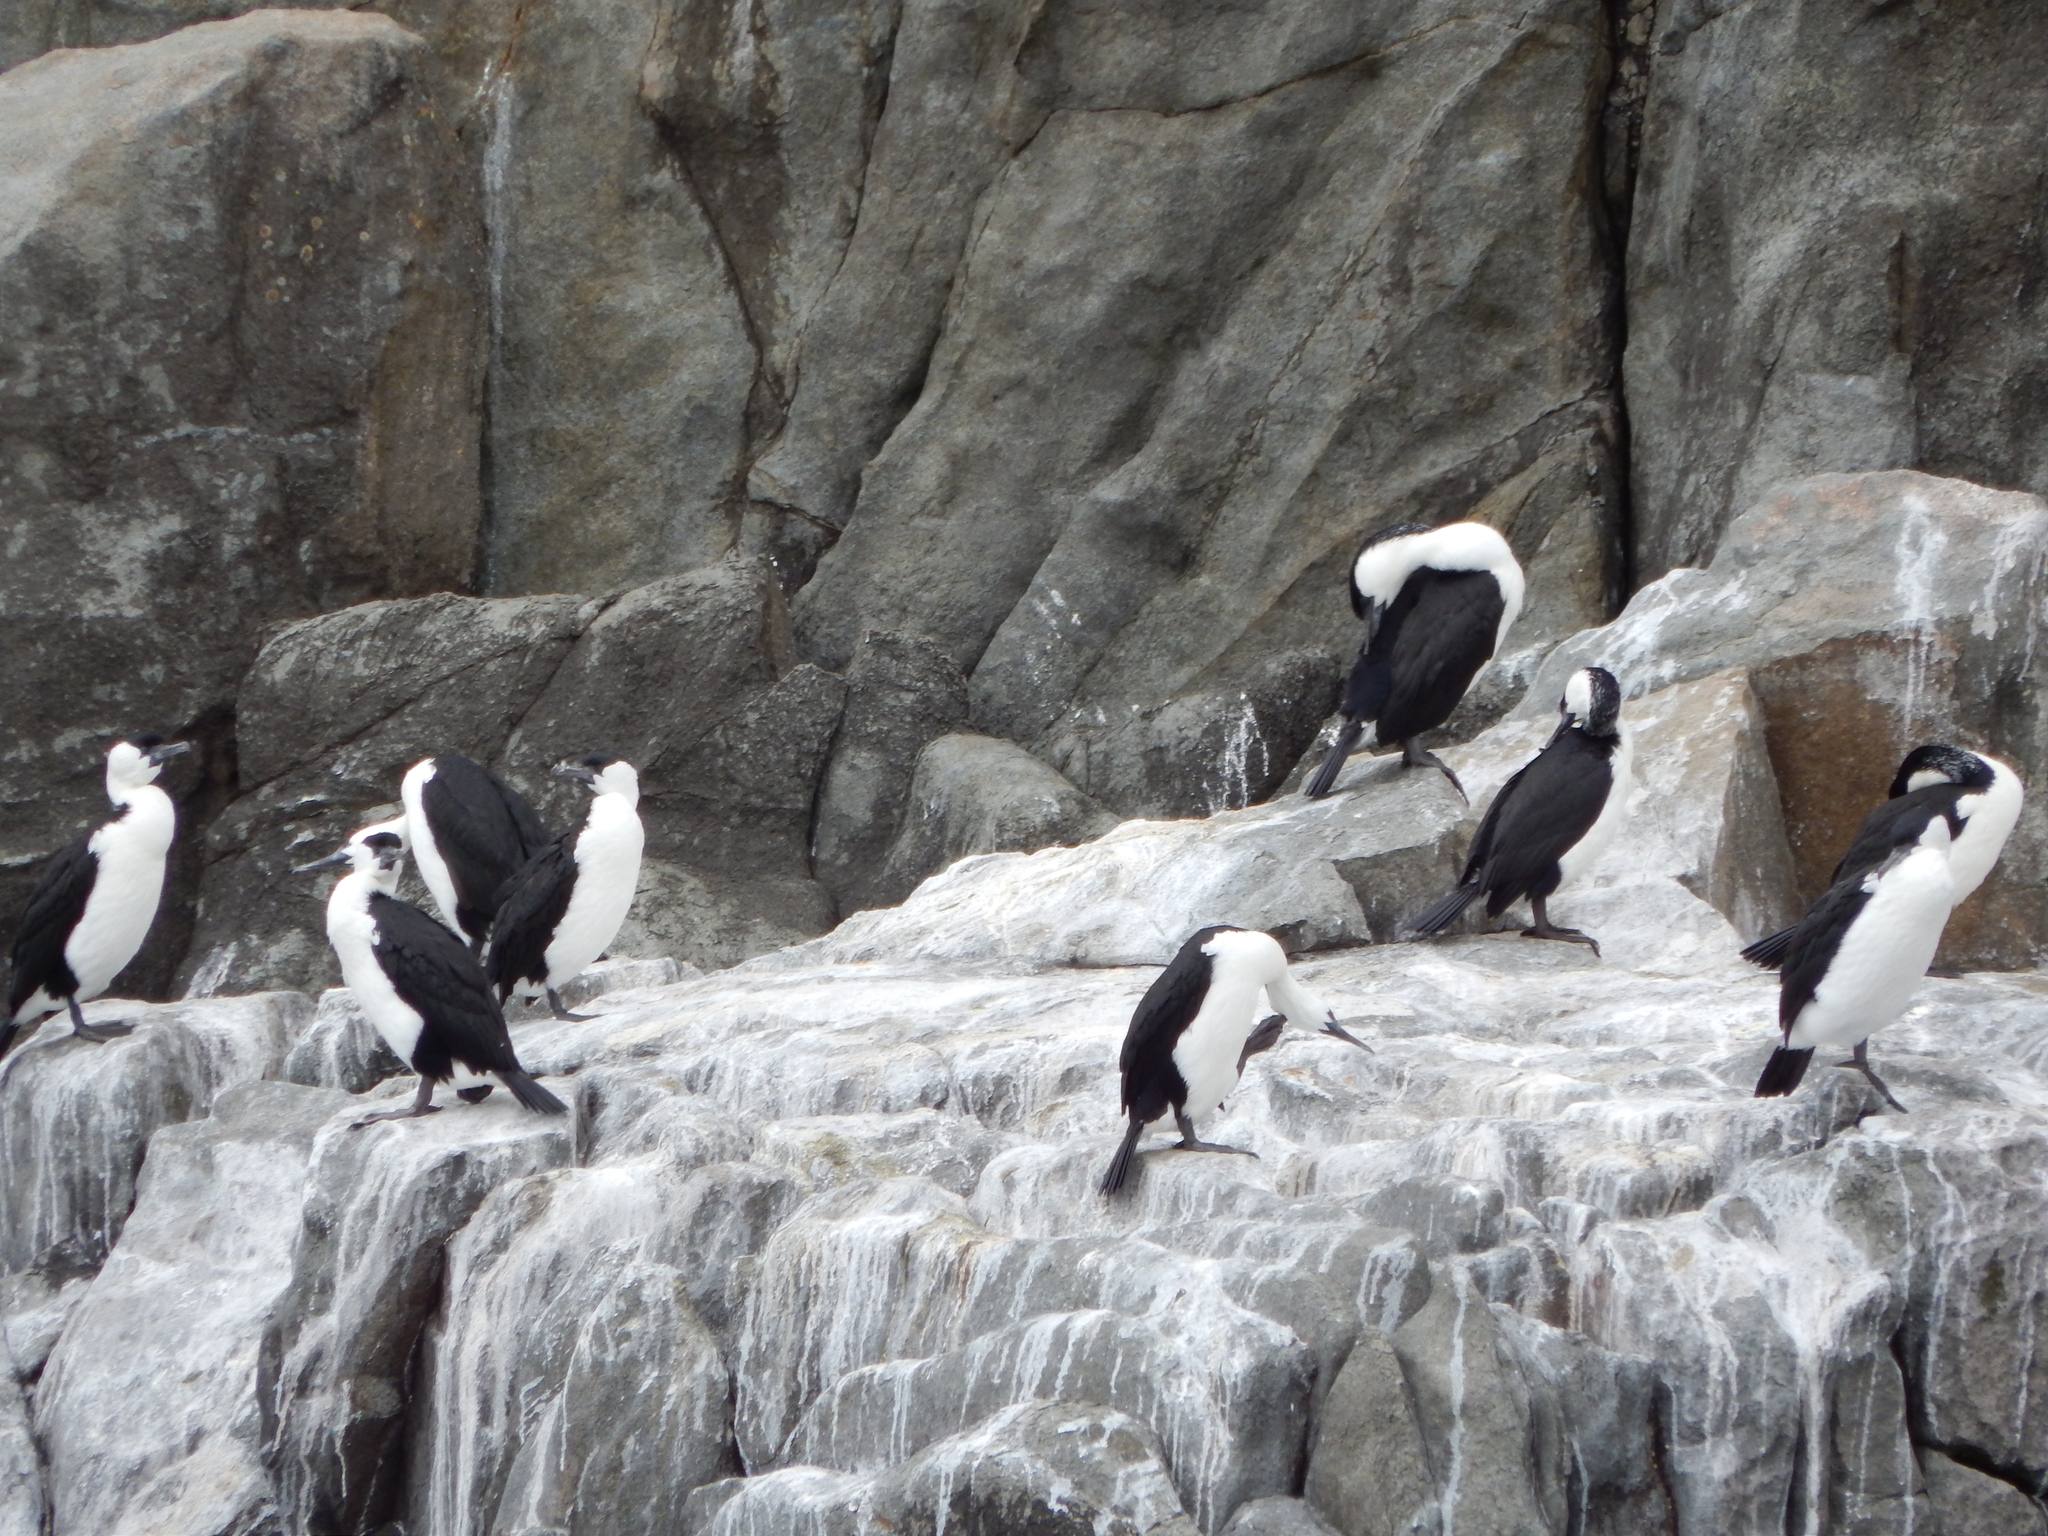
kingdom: Animalia
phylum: Chordata
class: Aves
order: Suliformes
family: Phalacrocoracidae
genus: Phalacrocorax
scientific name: Phalacrocorax fuscescens
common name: Black-faced cormorant
